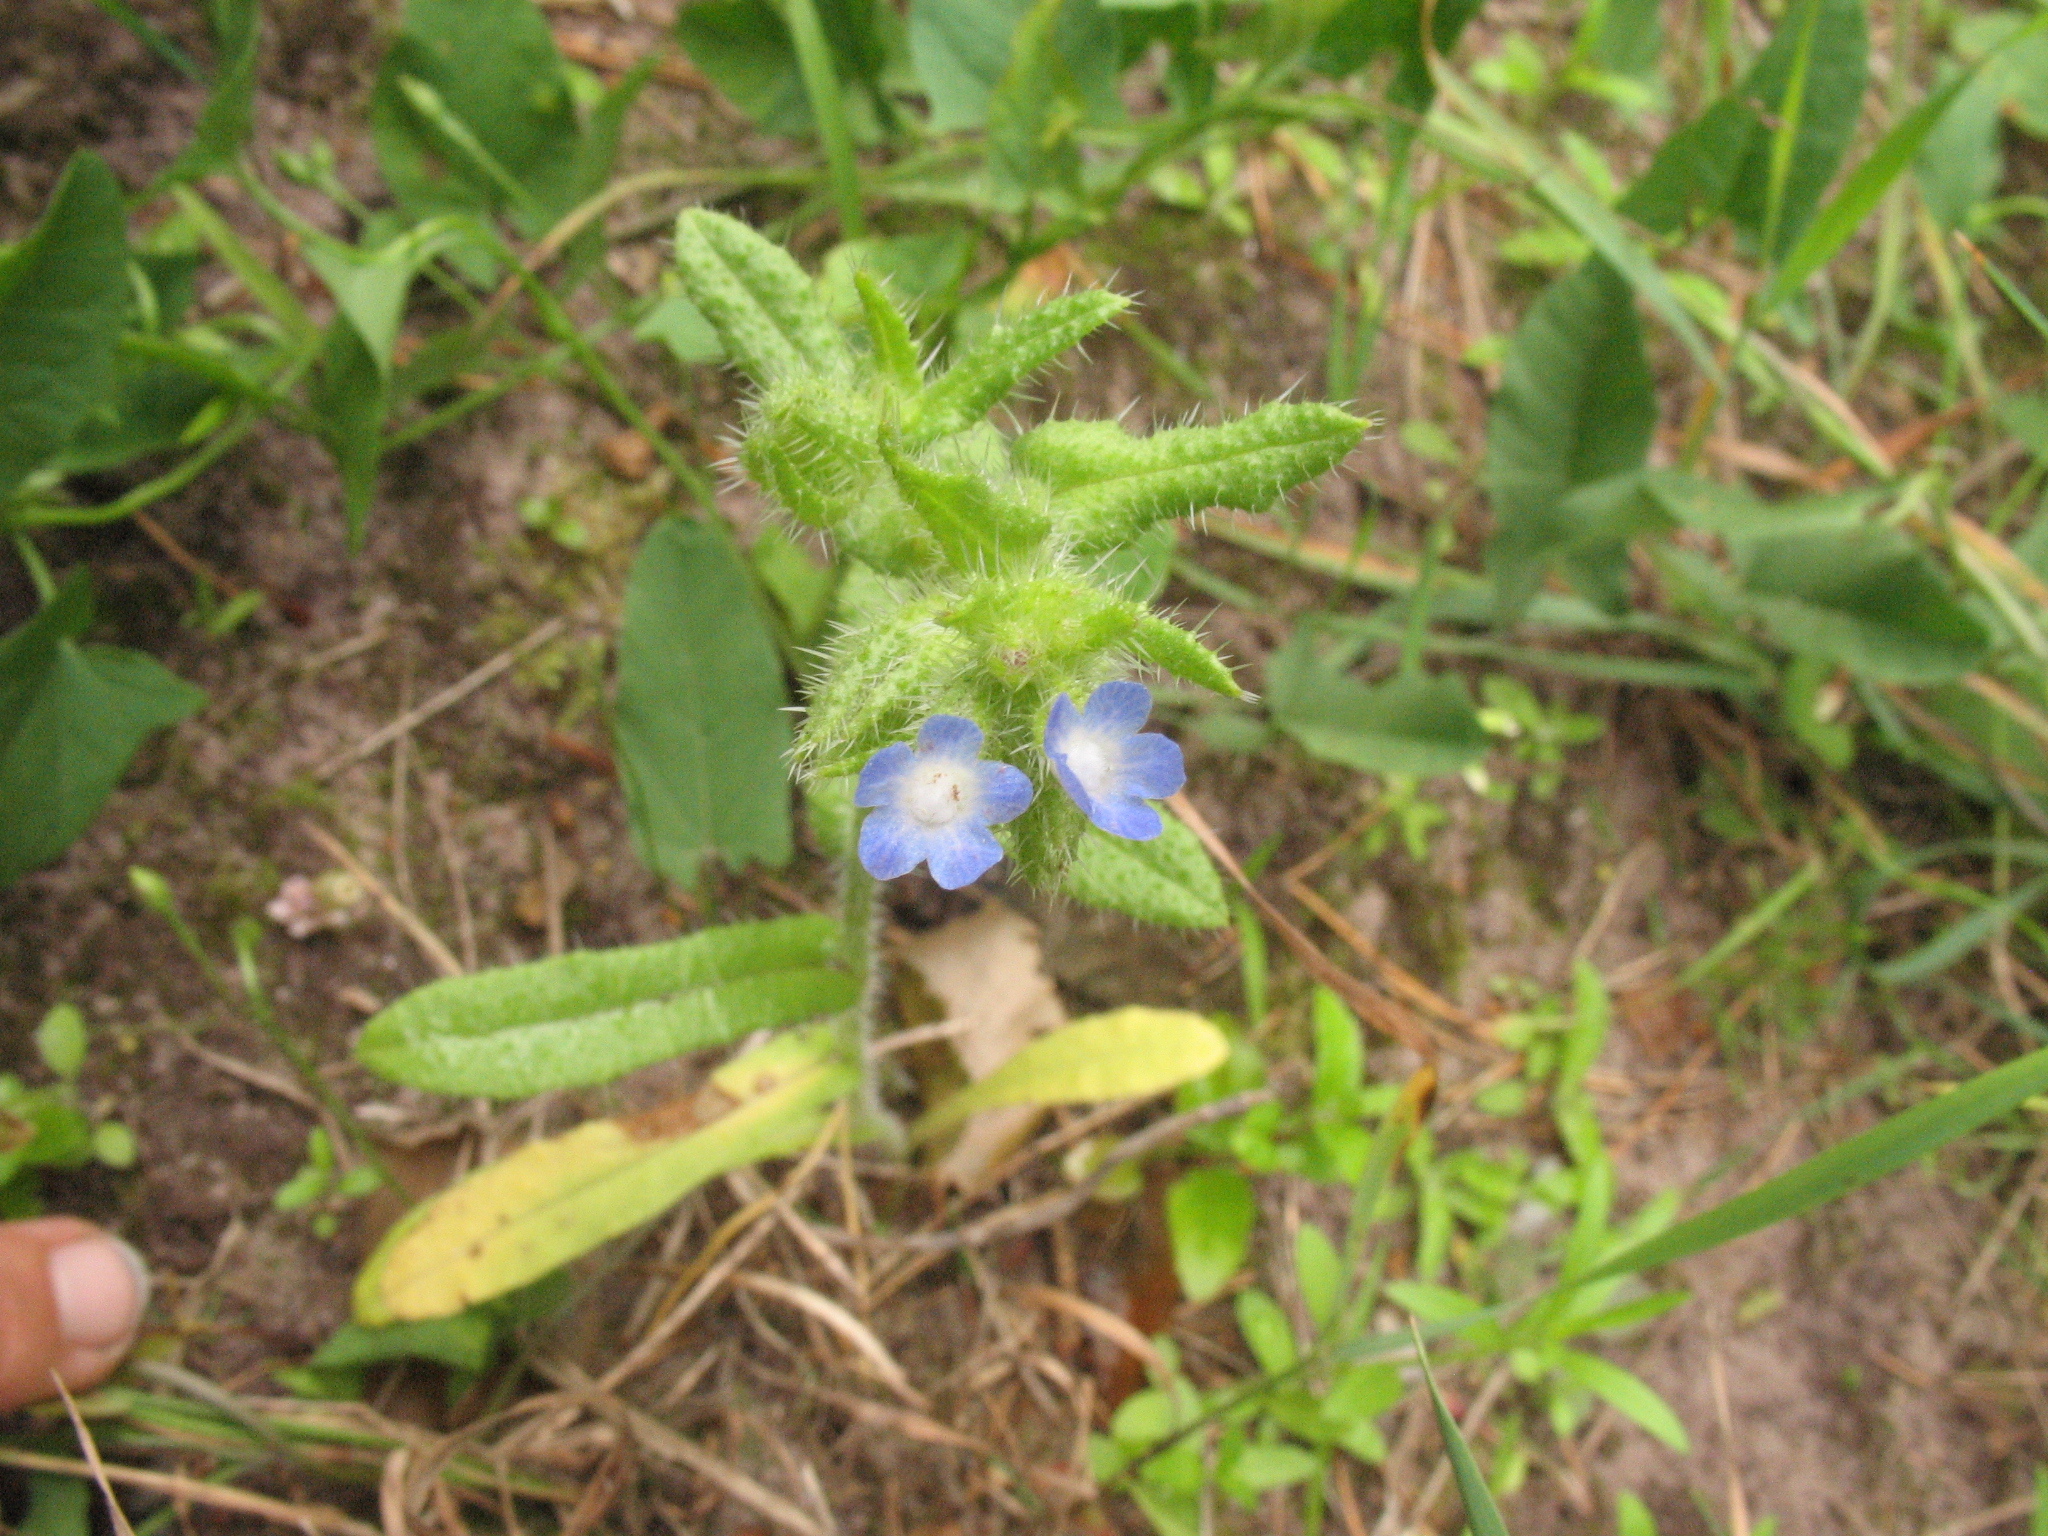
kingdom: Plantae
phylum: Tracheophyta
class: Magnoliopsida
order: Boraginales
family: Boraginaceae
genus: Lycopsis
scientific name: Lycopsis arvensis
